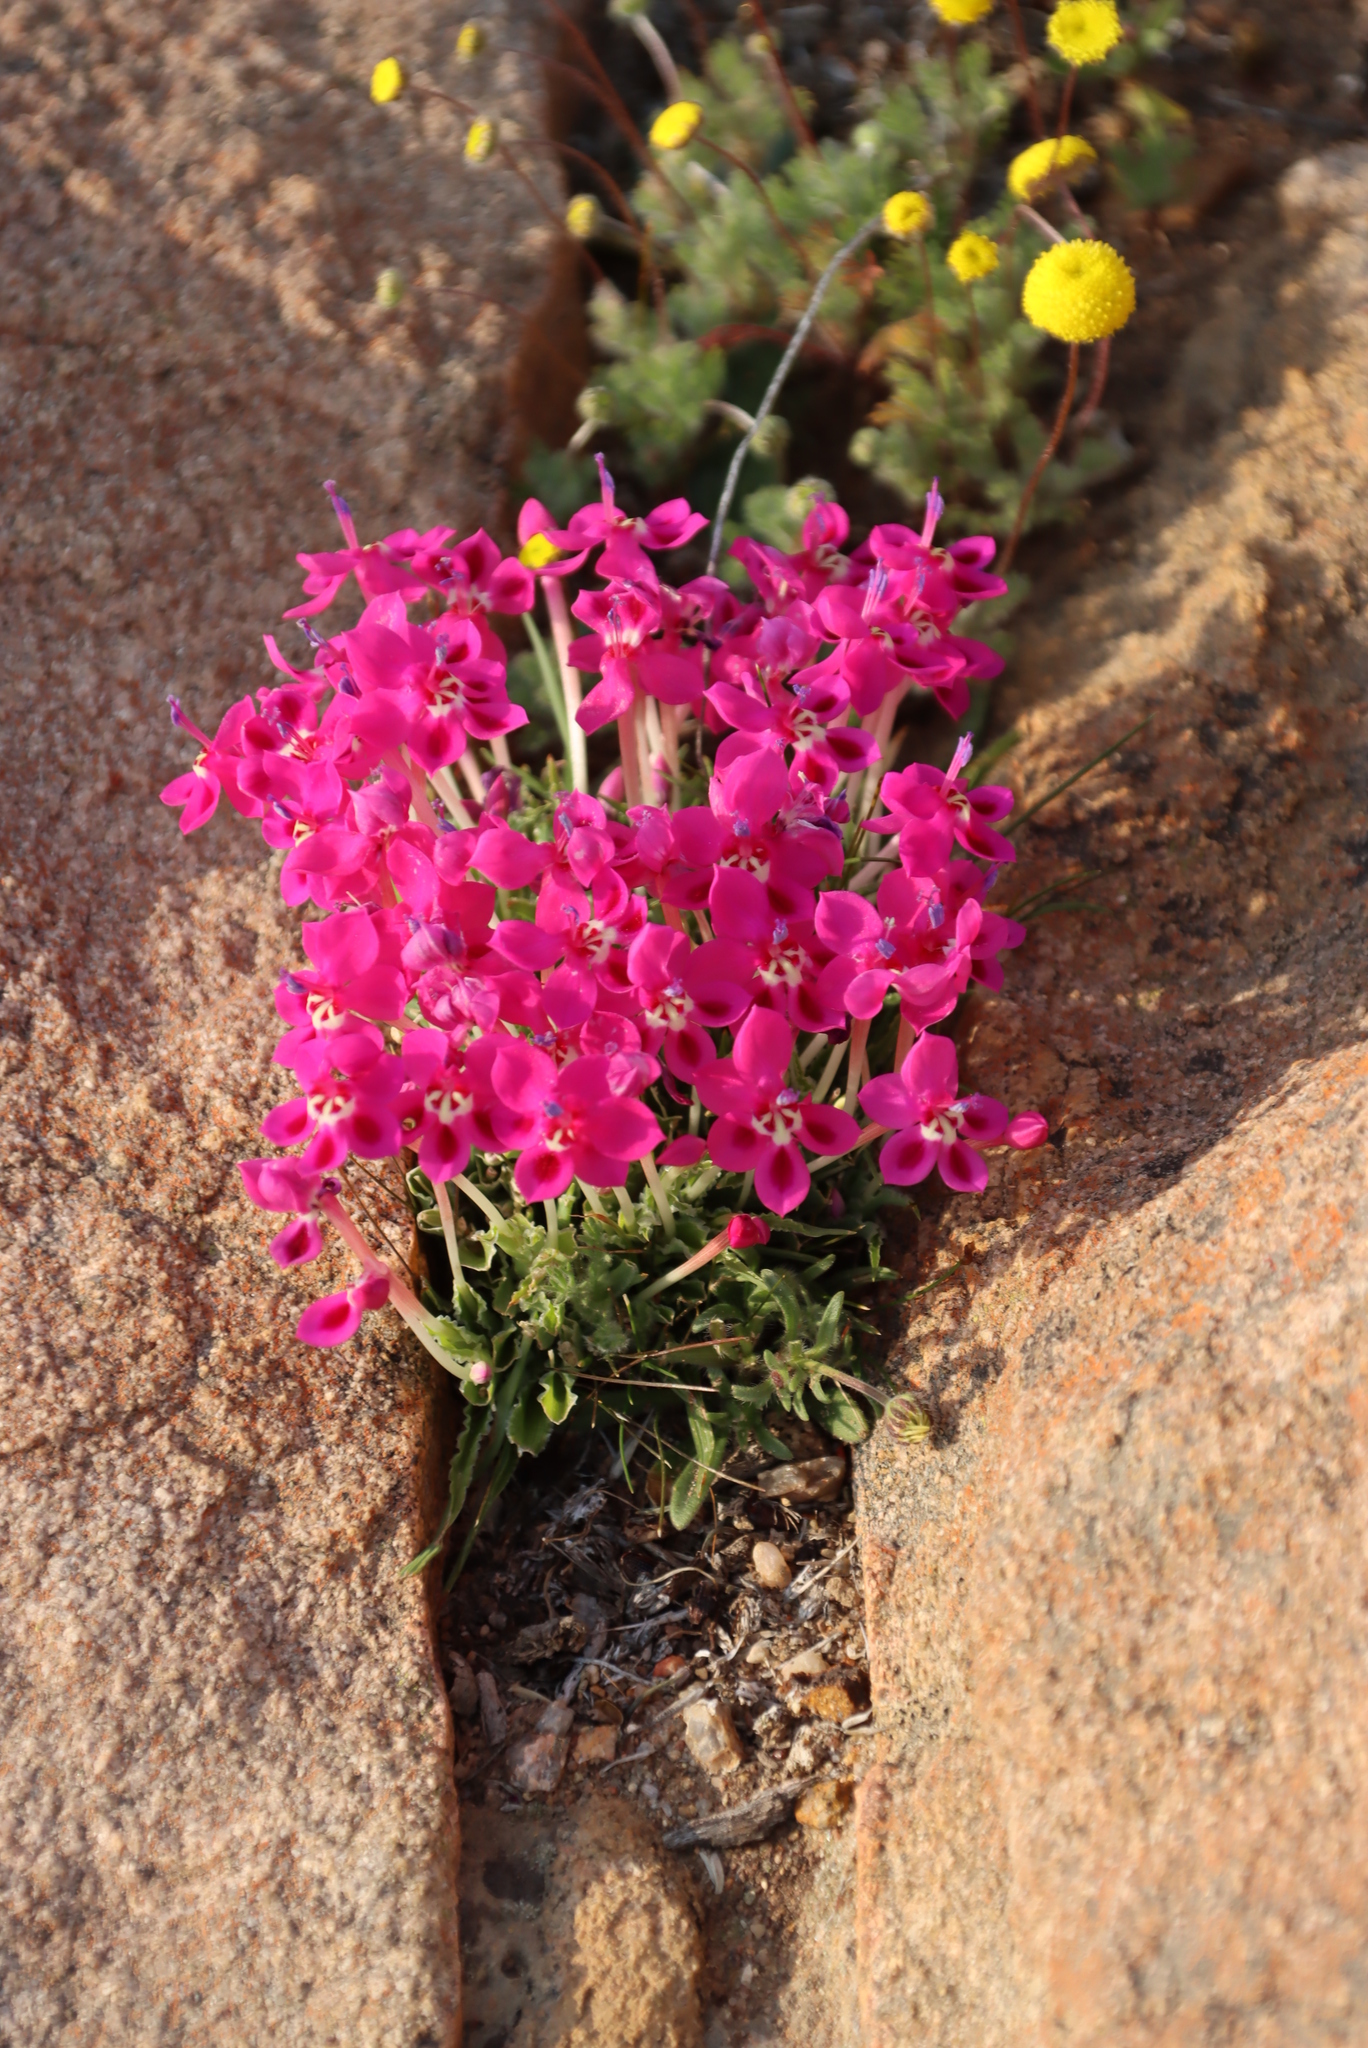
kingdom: Plantae
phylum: Tracheophyta
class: Liliopsida
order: Asparagales
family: Iridaceae
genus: Lapeirousia
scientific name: Lapeirousia silenoides
